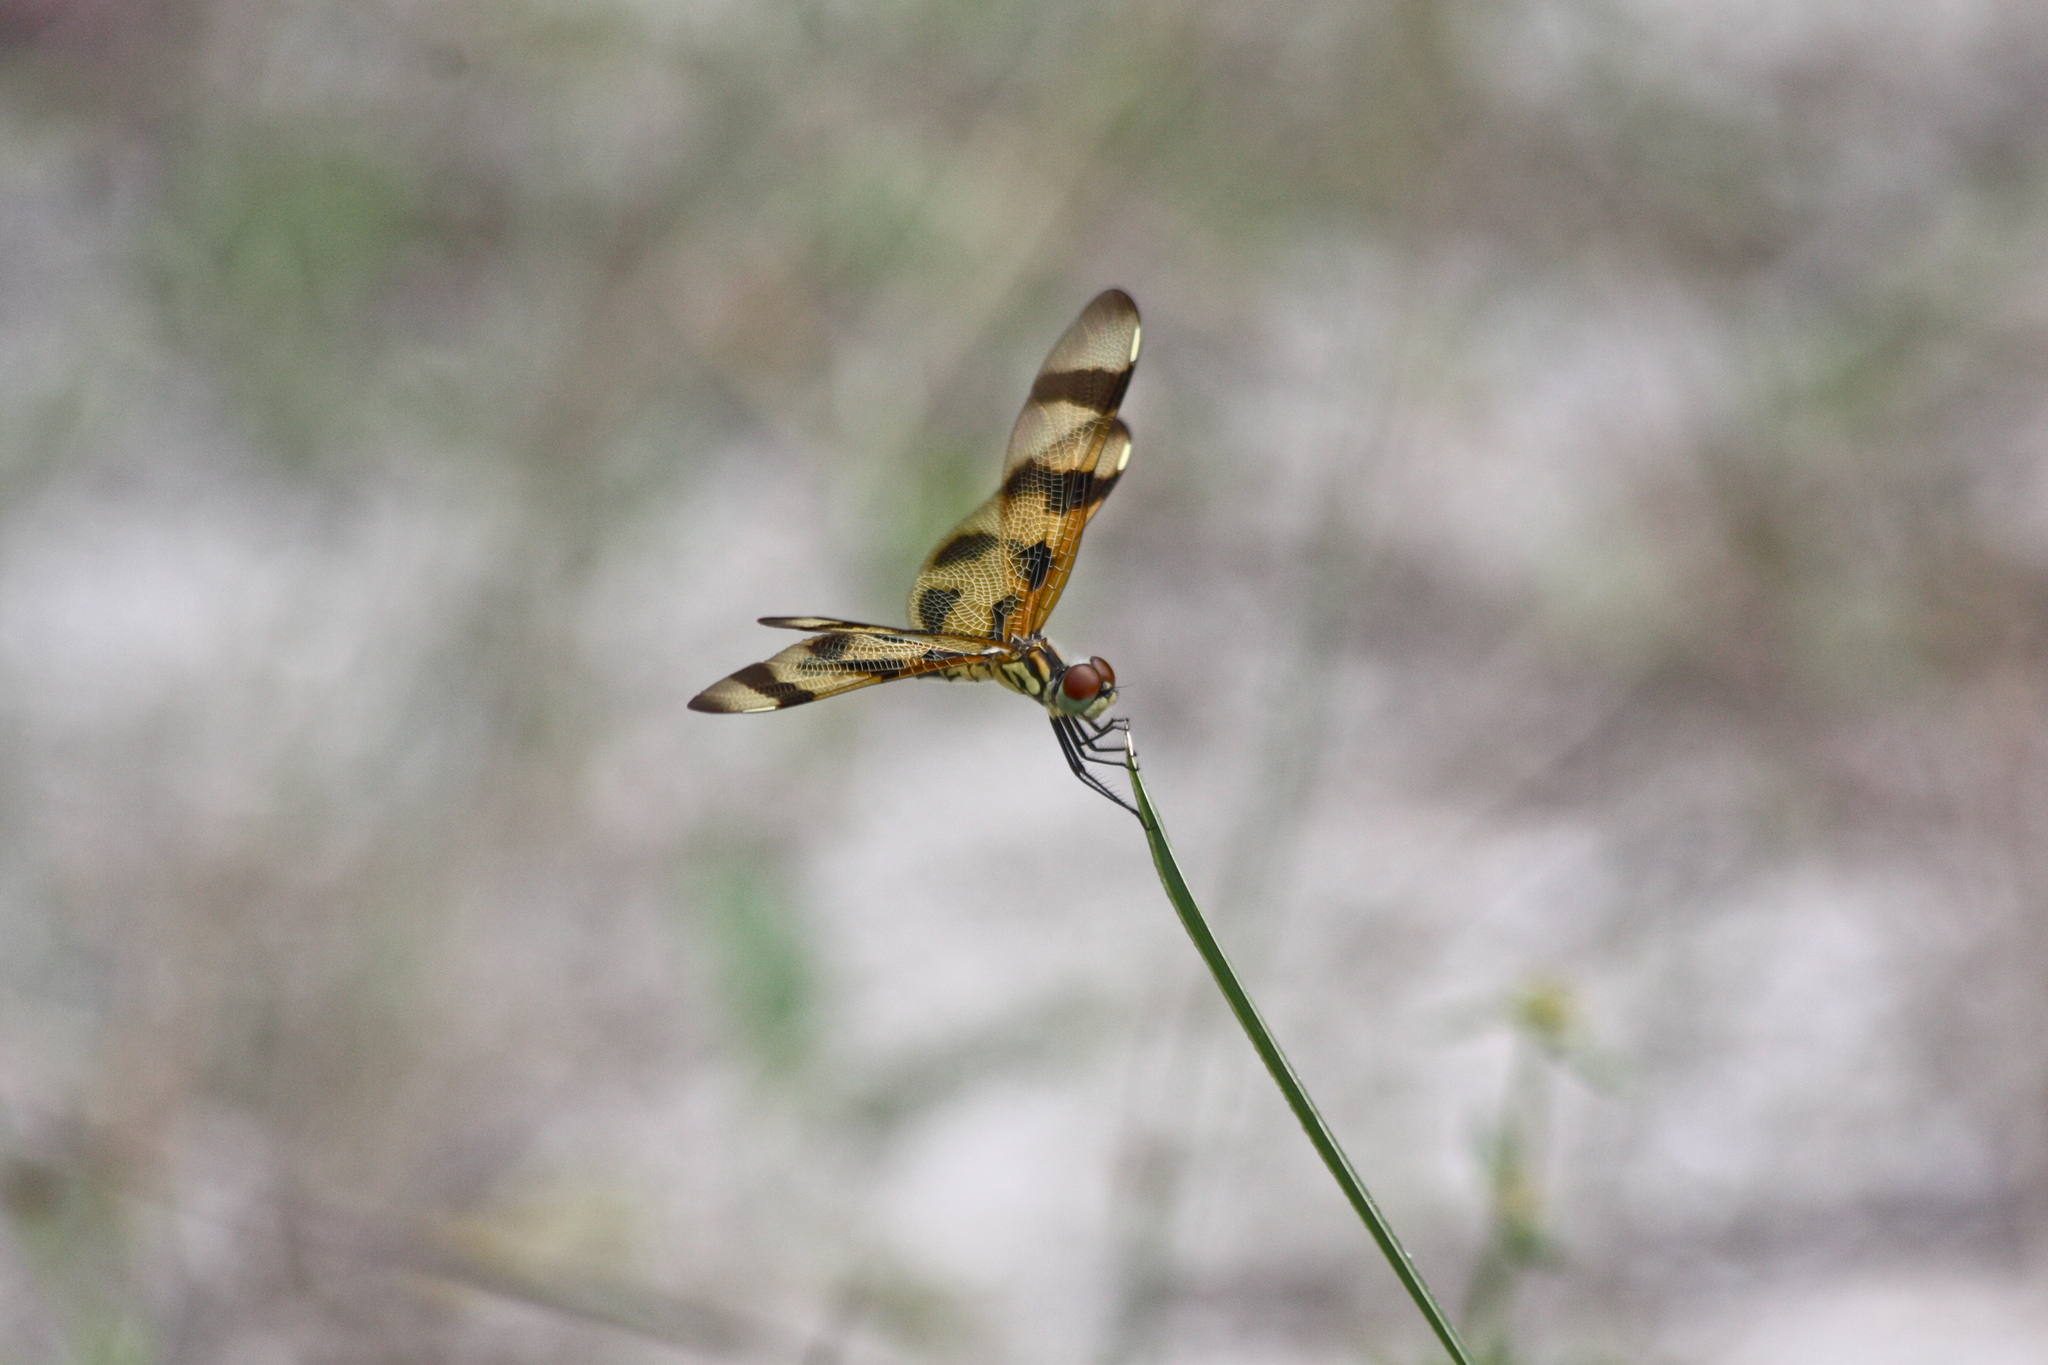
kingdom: Animalia
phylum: Arthropoda
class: Insecta
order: Odonata
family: Libellulidae
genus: Celithemis
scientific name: Celithemis eponina
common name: Halloween pennant
